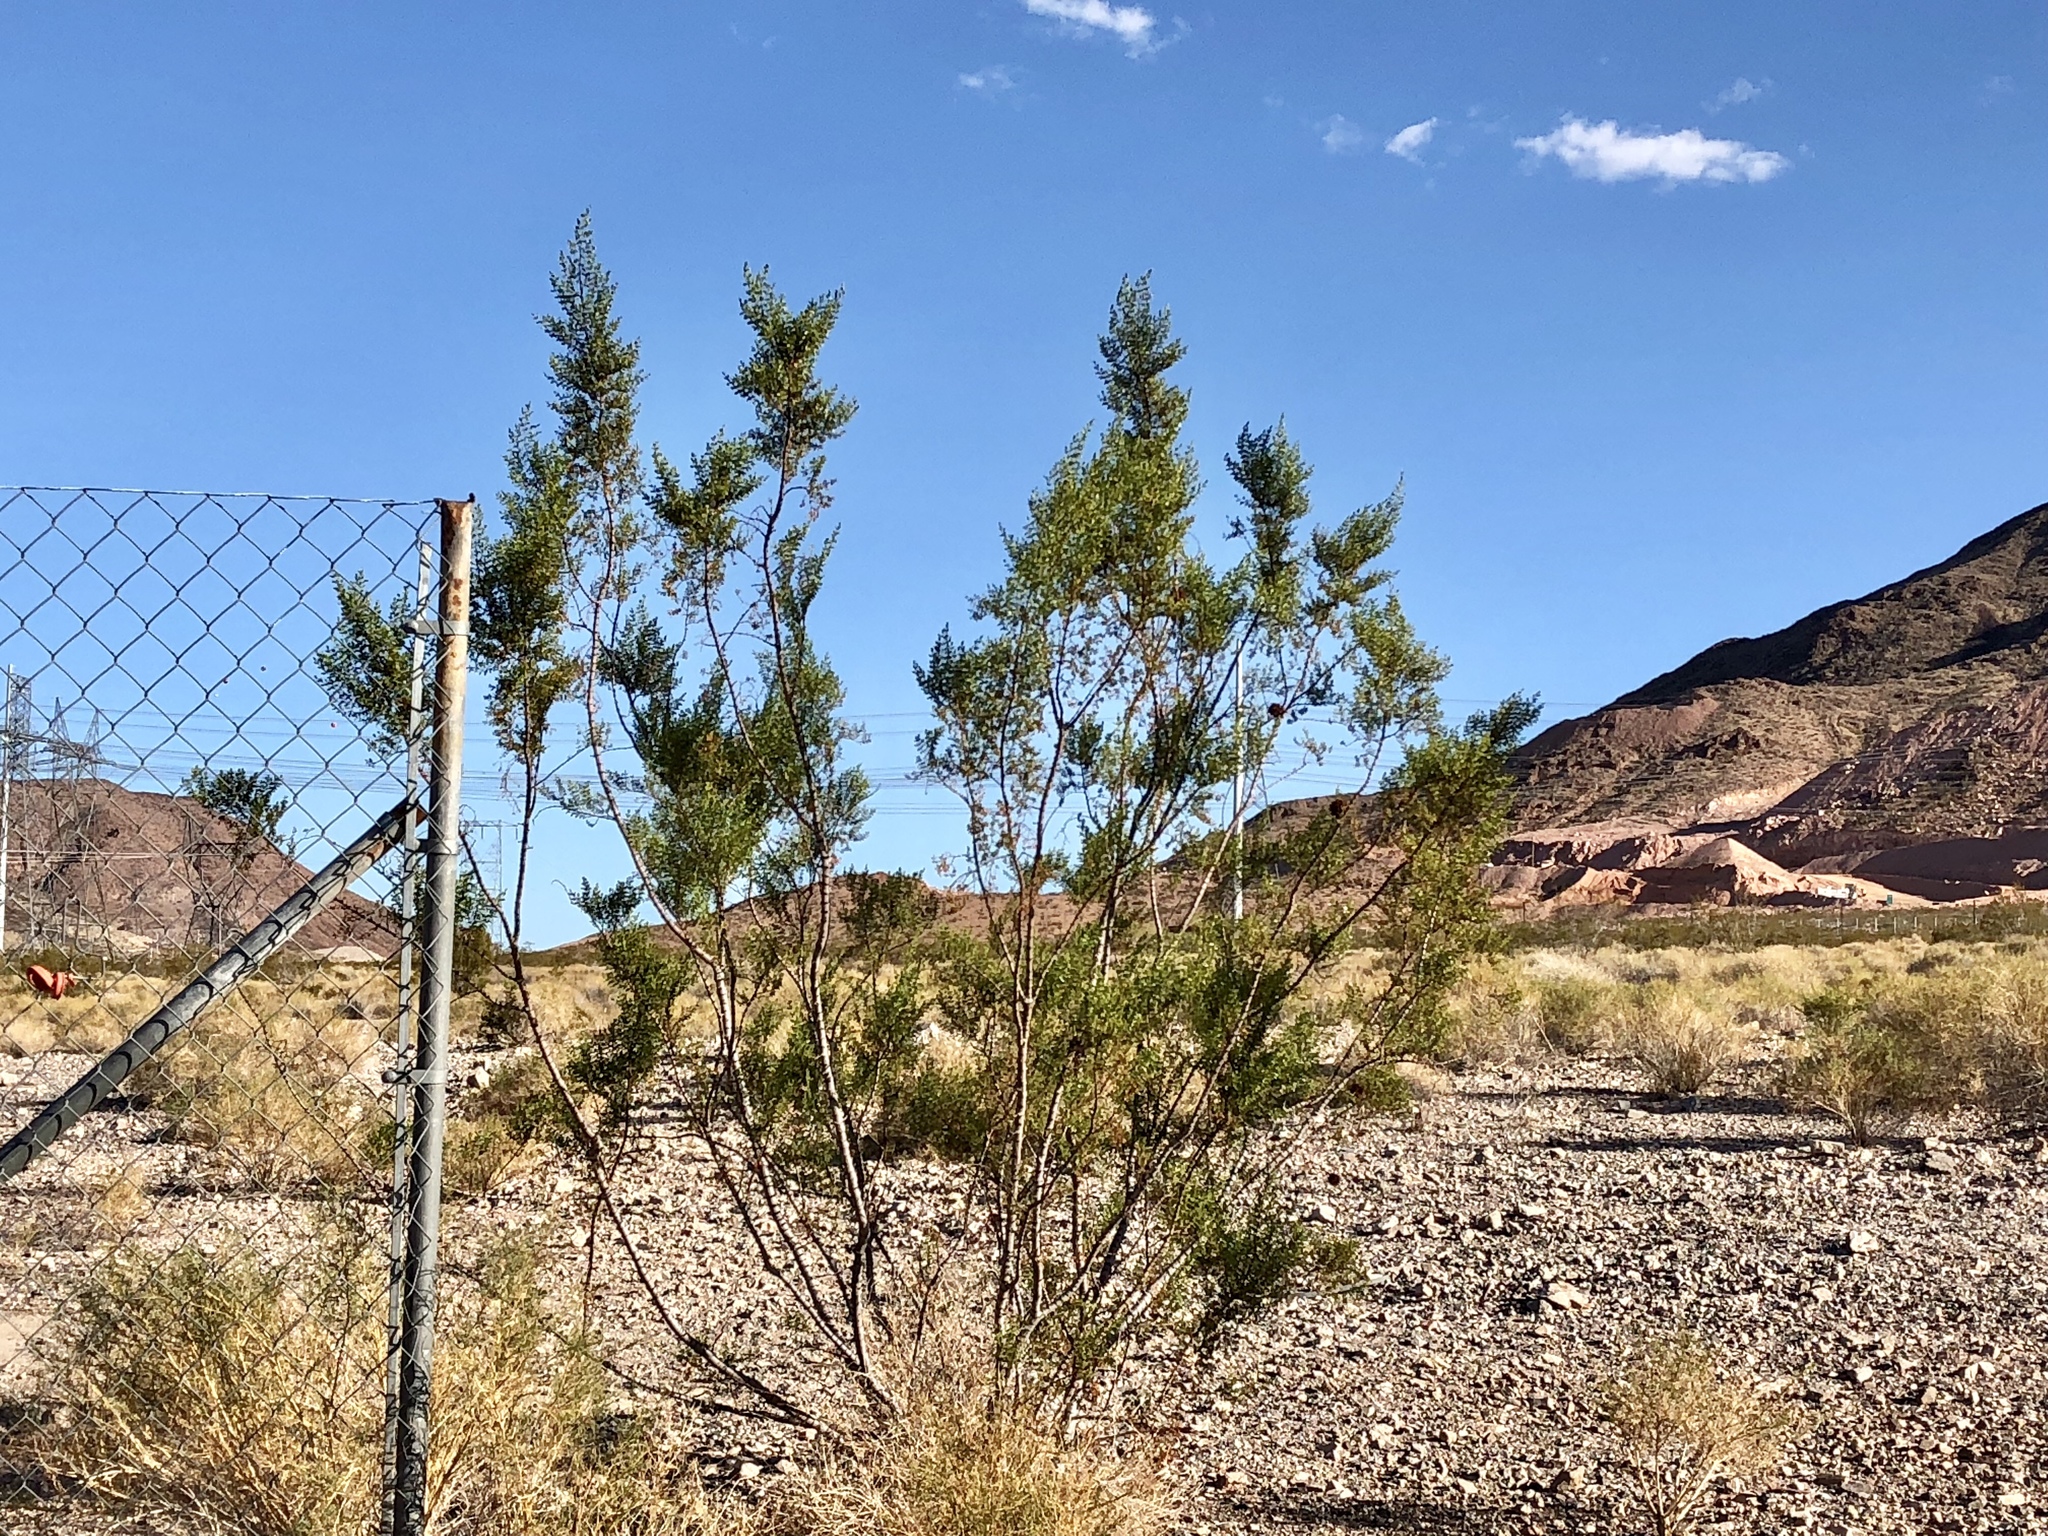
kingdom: Plantae
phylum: Tracheophyta
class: Magnoliopsida
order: Zygophyllales
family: Zygophyllaceae
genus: Larrea
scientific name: Larrea tridentata
